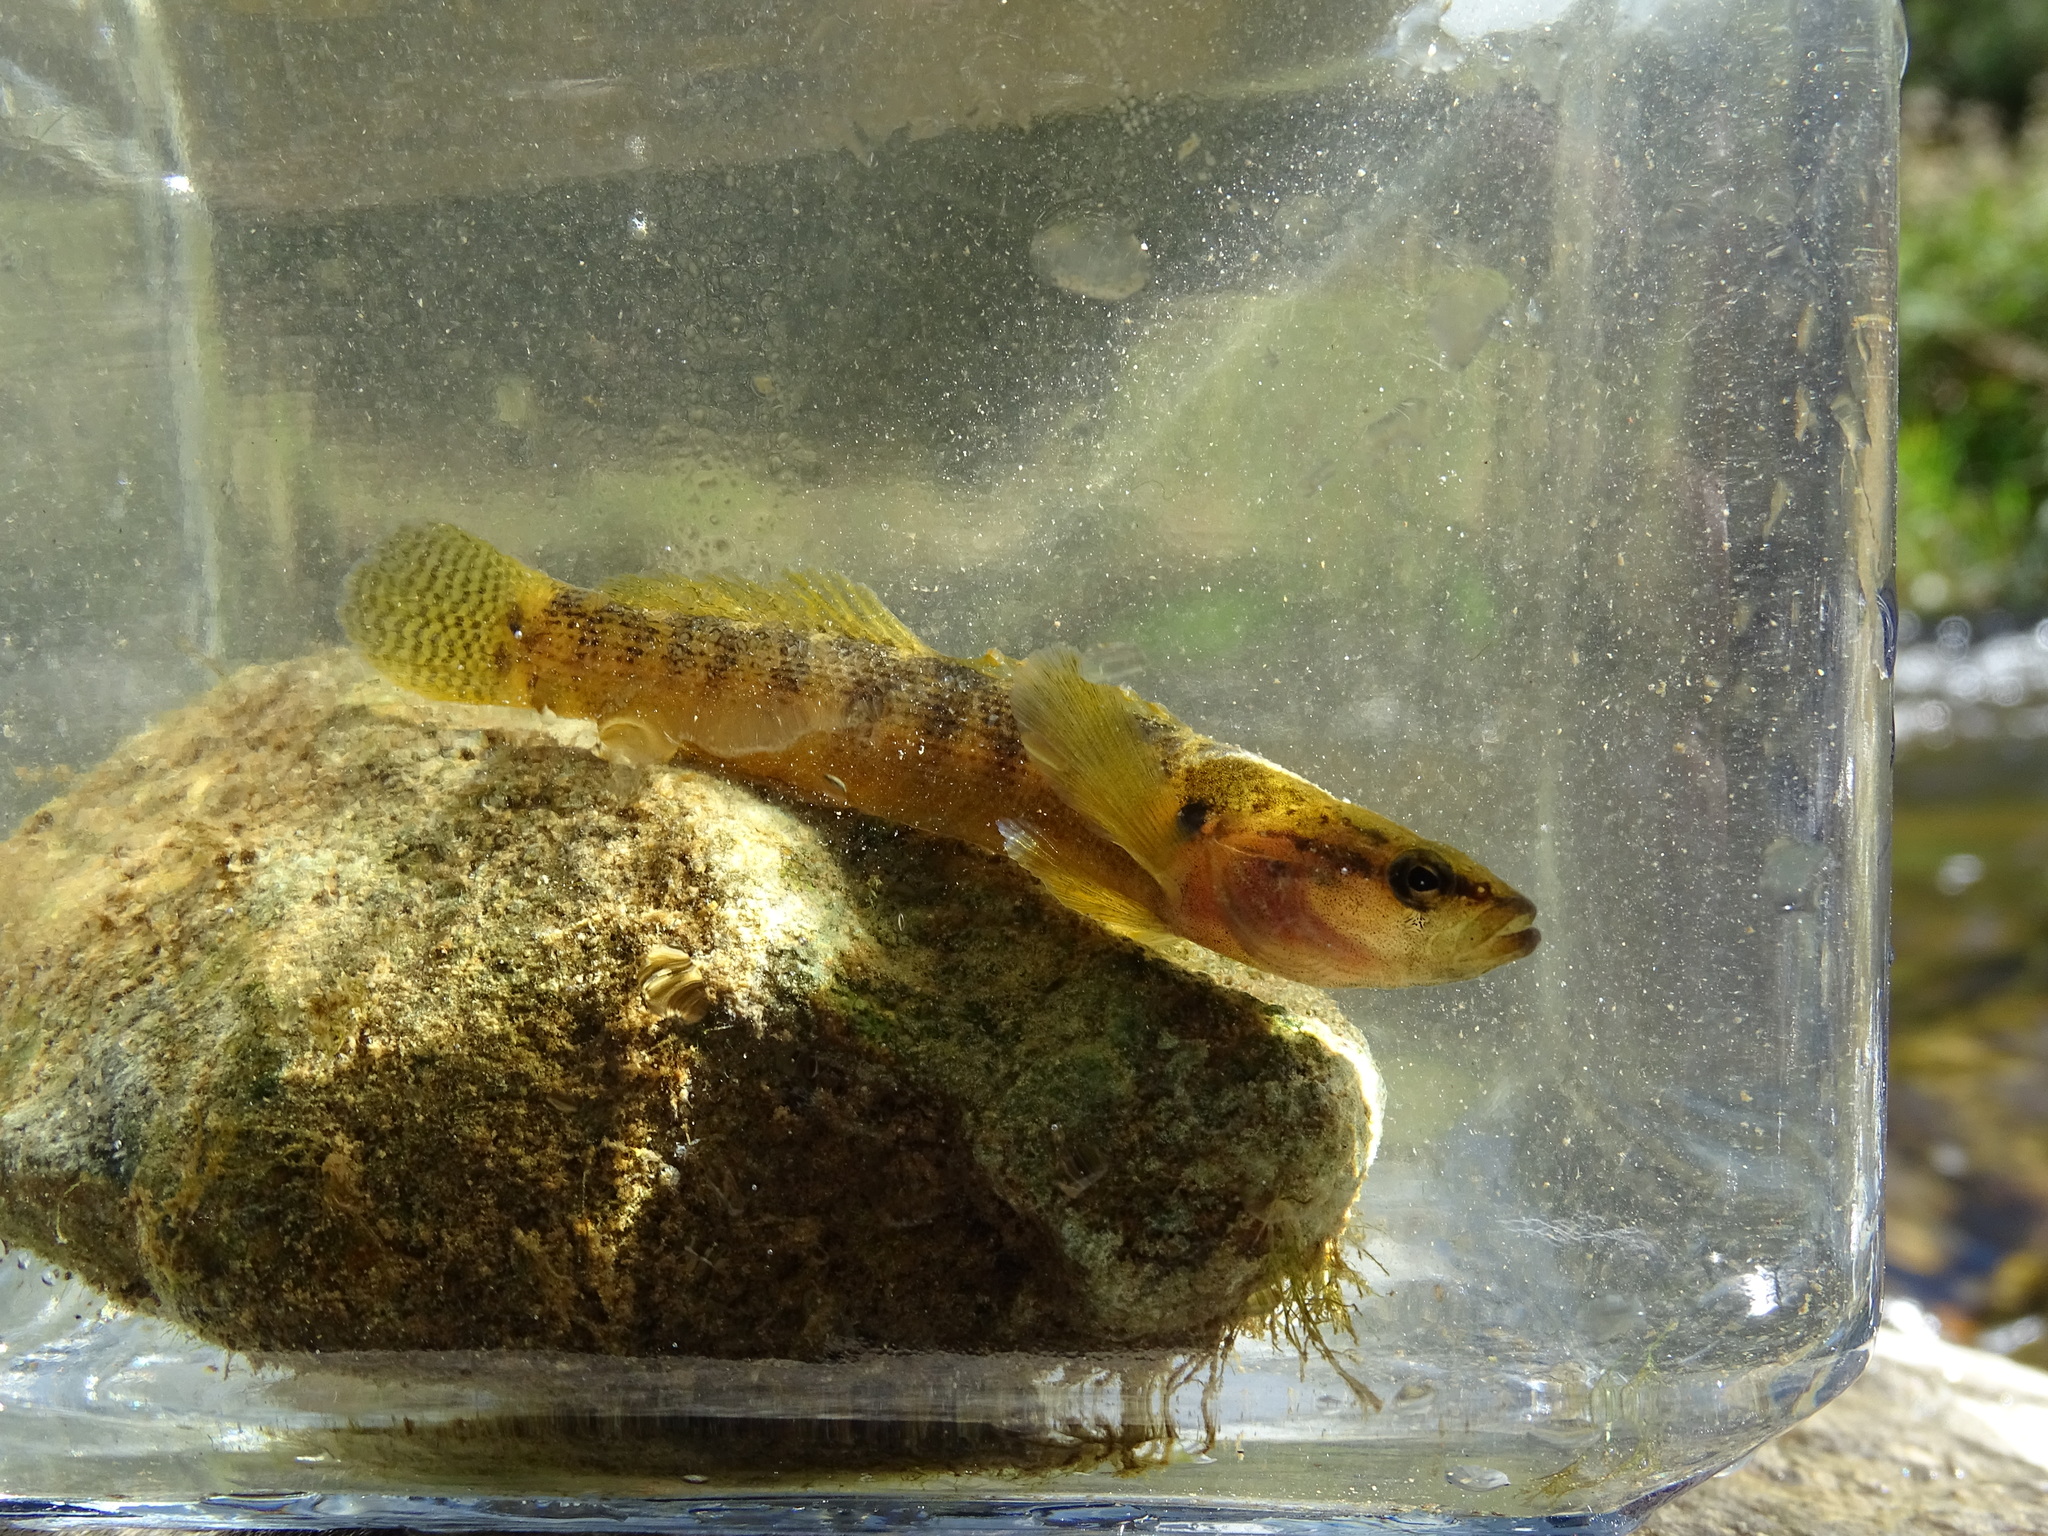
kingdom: Animalia
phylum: Chordata
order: Perciformes
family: Percidae
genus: Etheostoma
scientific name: Etheostoma flabellare
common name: Fantail darter
